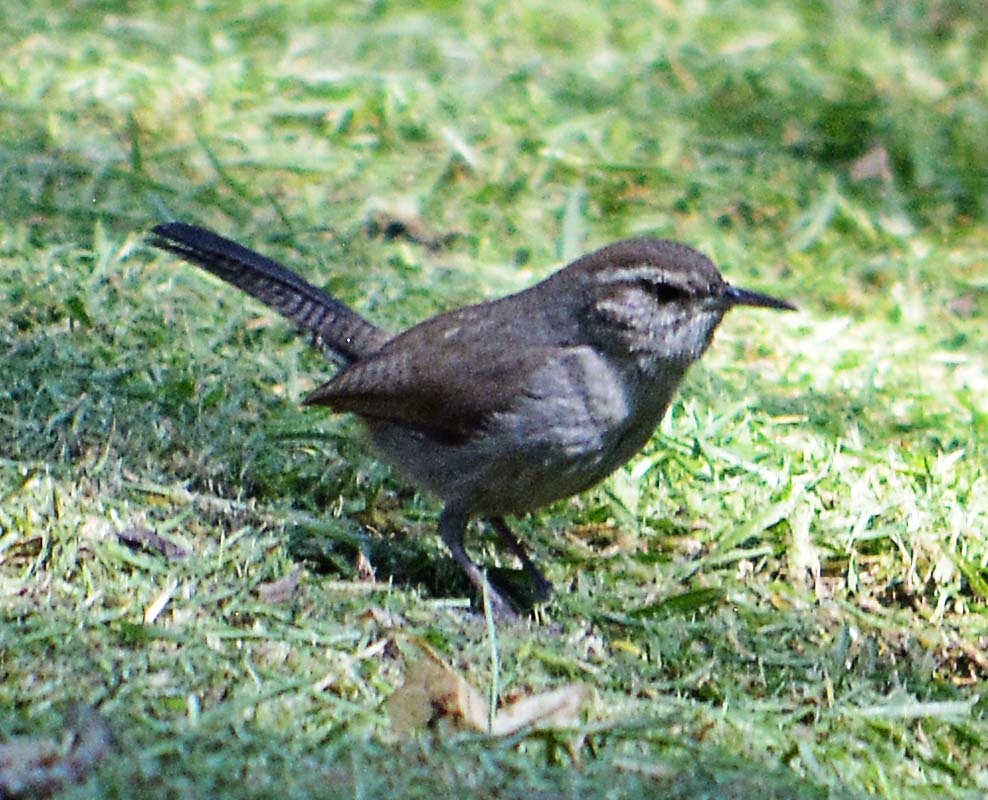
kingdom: Animalia
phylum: Chordata
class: Aves
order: Passeriformes
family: Troglodytidae
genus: Thryomanes
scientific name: Thryomanes bewickii
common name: Bewick's wren
